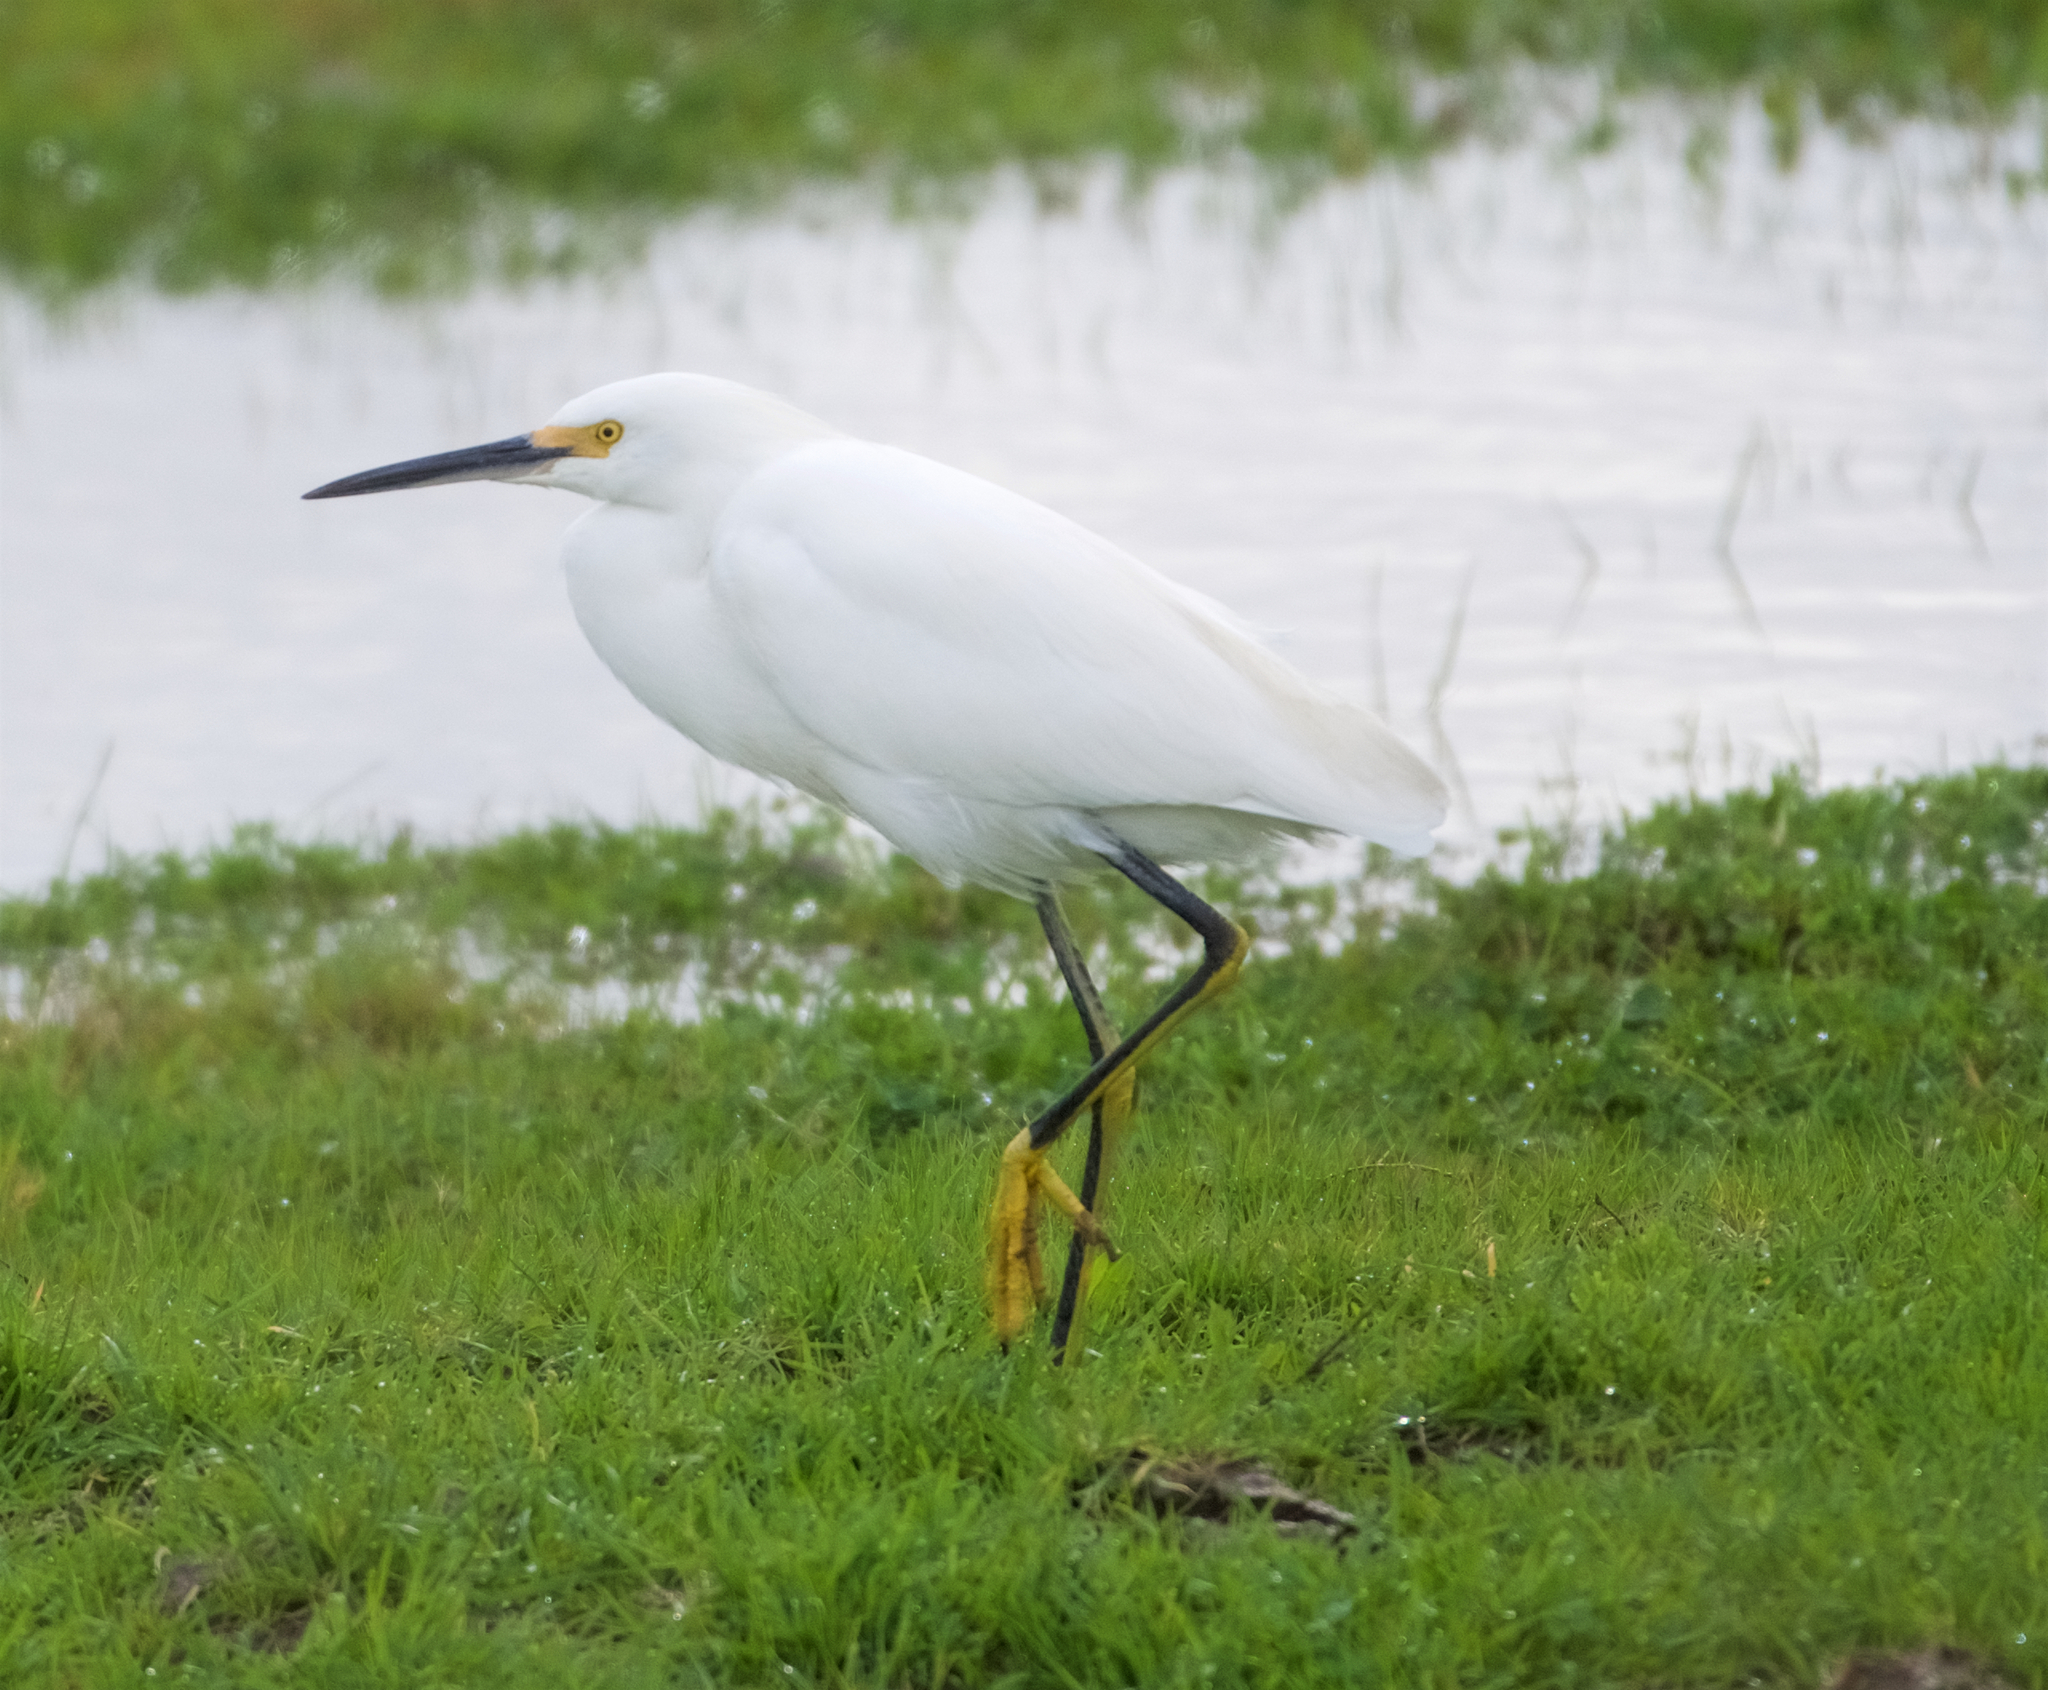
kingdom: Animalia
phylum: Chordata
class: Aves
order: Pelecaniformes
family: Ardeidae
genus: Egretta
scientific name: Egretta thula
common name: Snowy egret
